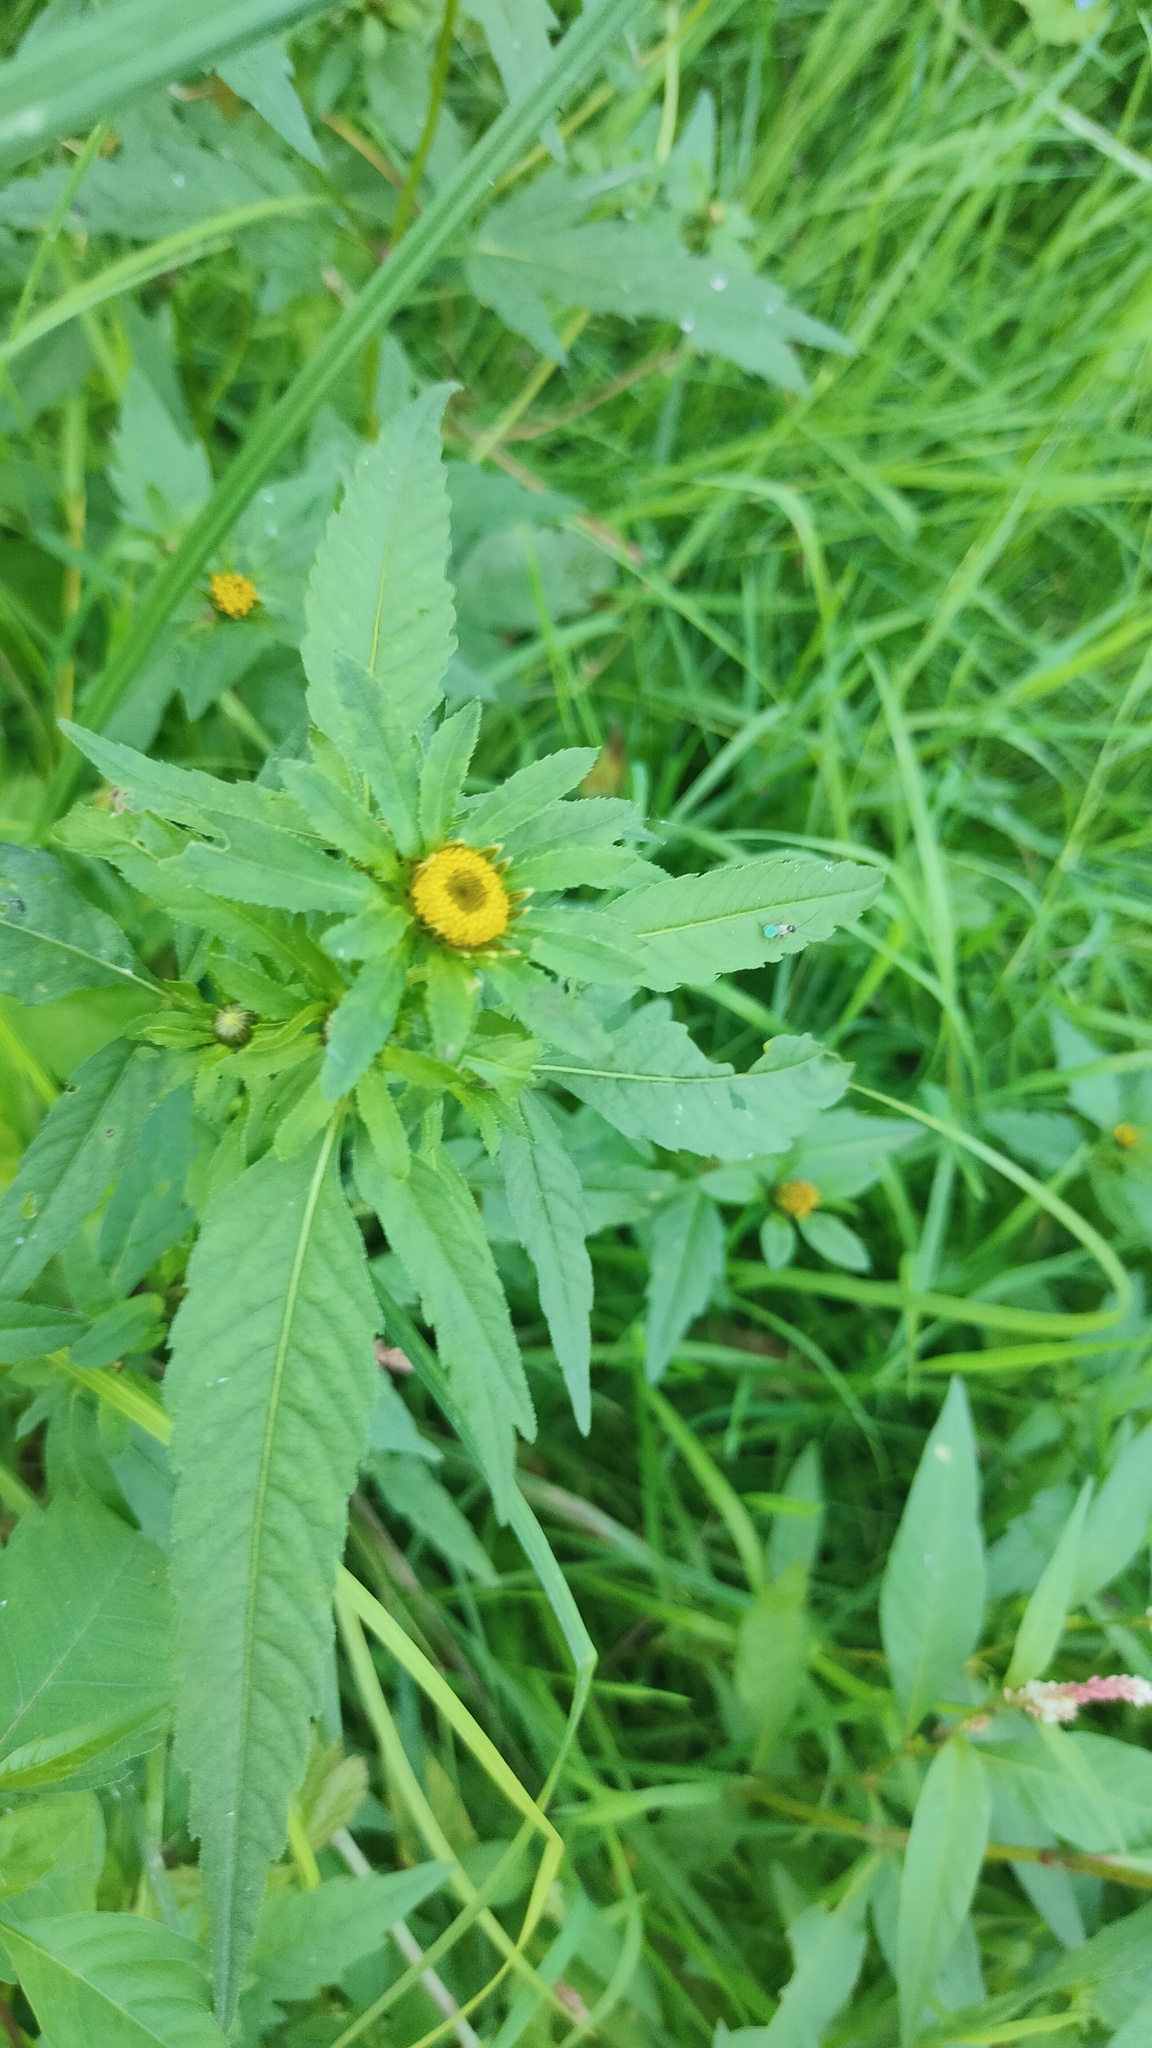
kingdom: Plantae
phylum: Tracheophyta
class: Magnoliopsida
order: Asterales
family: Asteraceae
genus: Bidens
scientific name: Bidens tripartita
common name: Trifid bur-marigold
